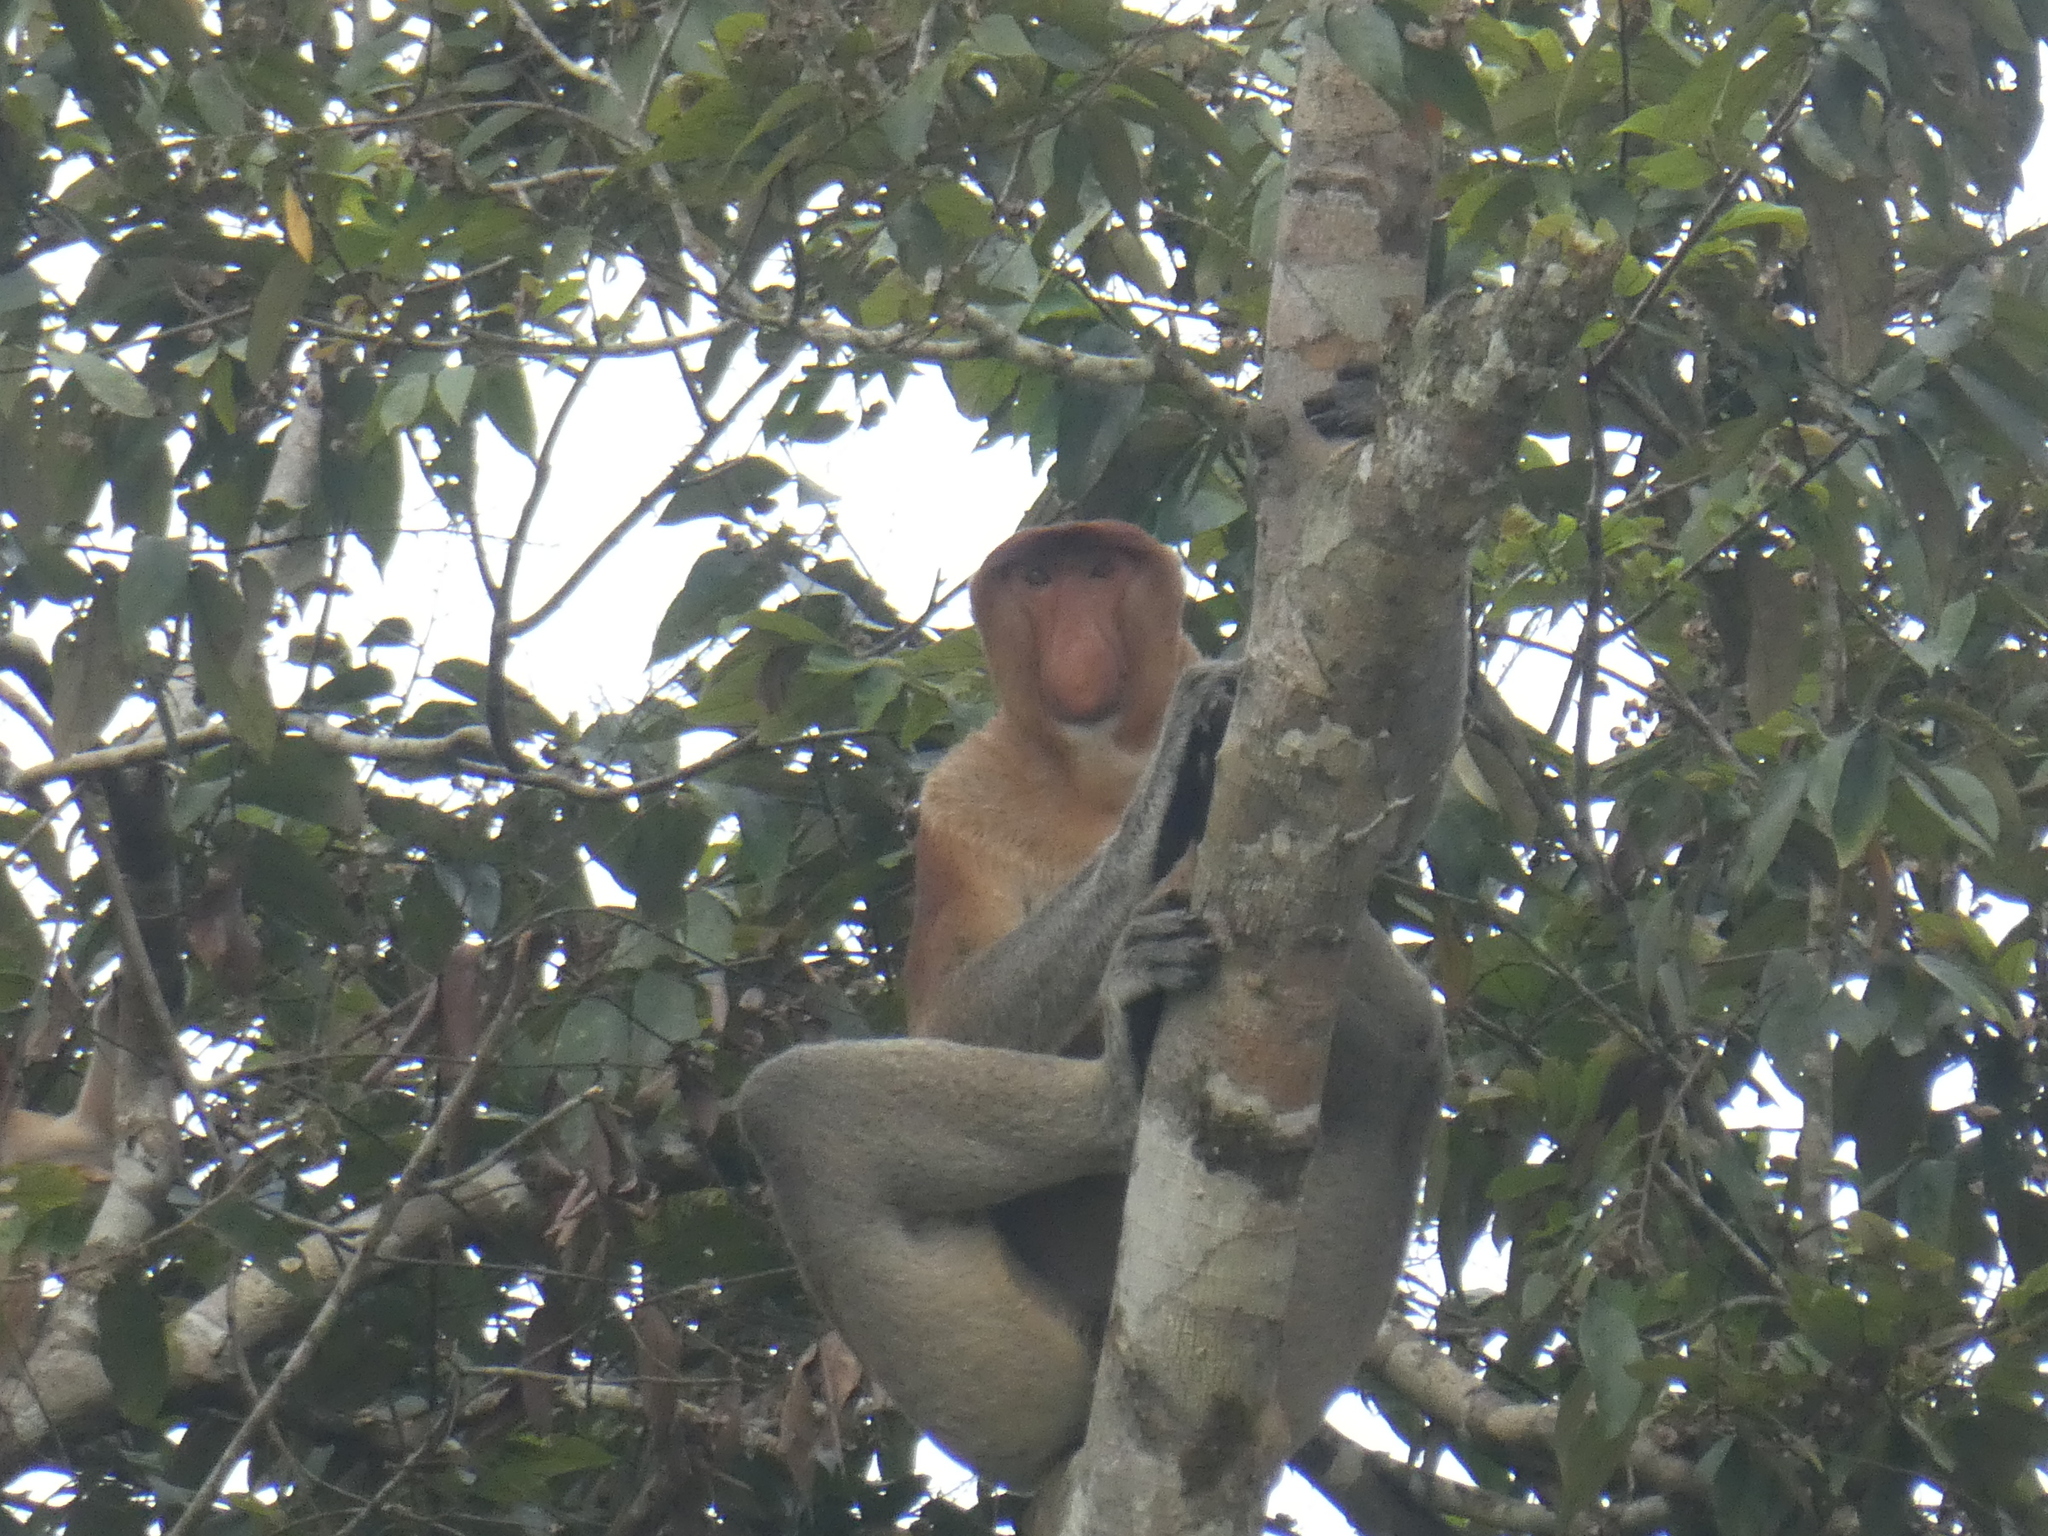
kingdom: Animalia
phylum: Chordata
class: Mammalia
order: Primates
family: Cercopithecidae
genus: Nasalis
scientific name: Nasalis larvatus
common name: Proboscis monkey
